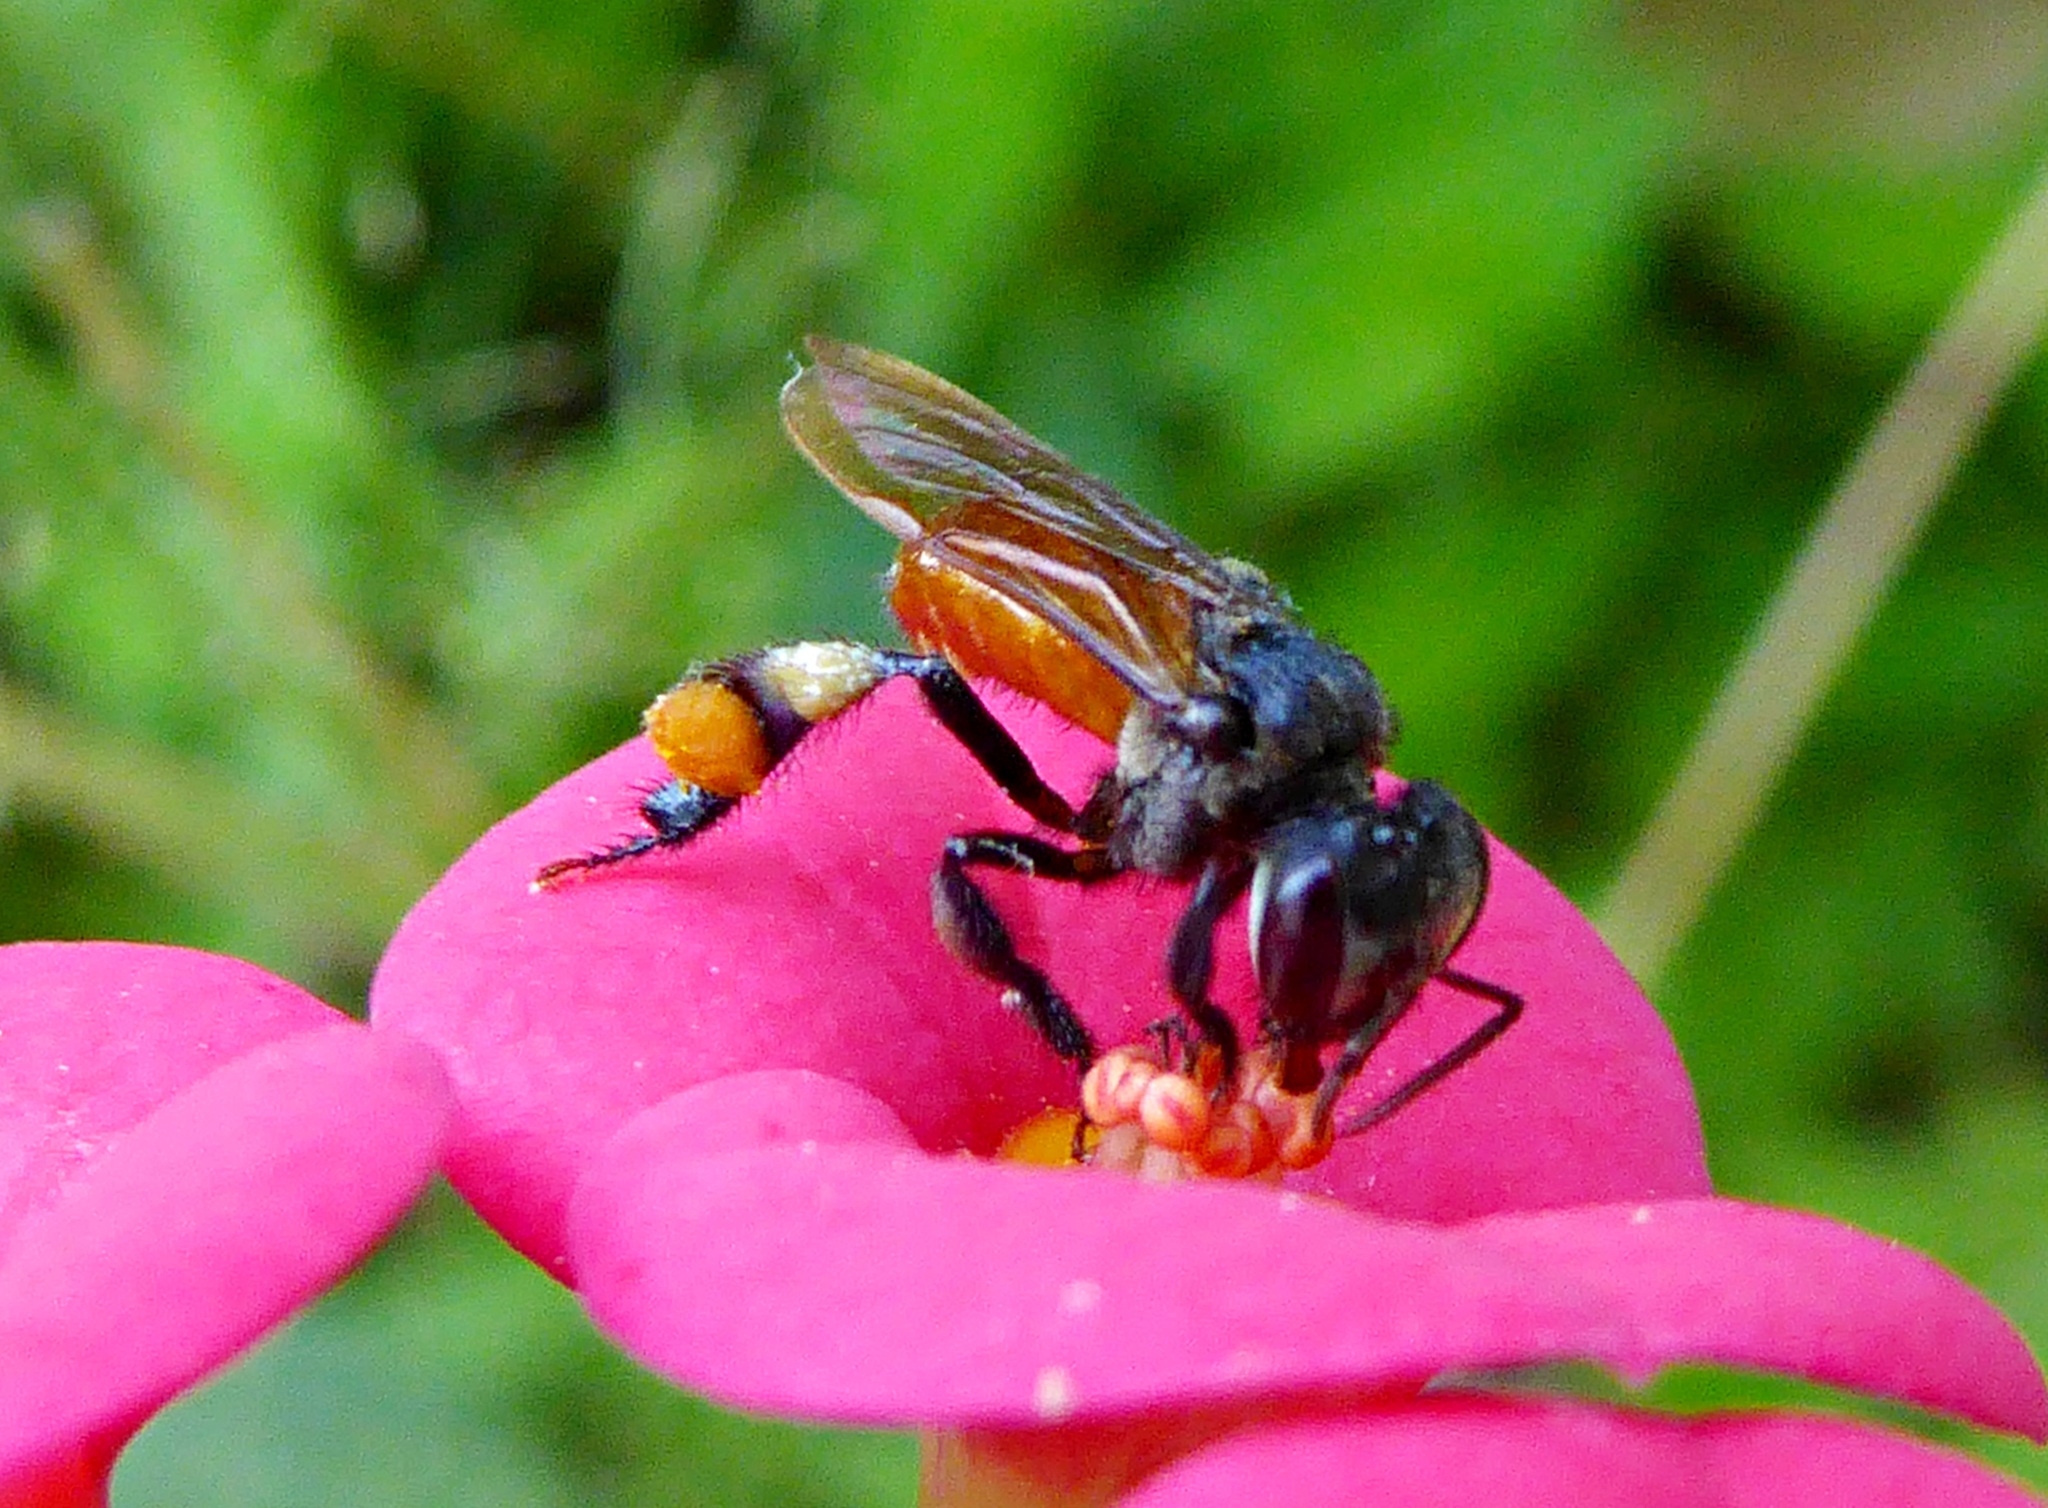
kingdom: Animalia
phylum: Arthropoda
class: Insecta
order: Hymenoptera
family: Apidae
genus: Trigona
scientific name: Trigona fulviventris
